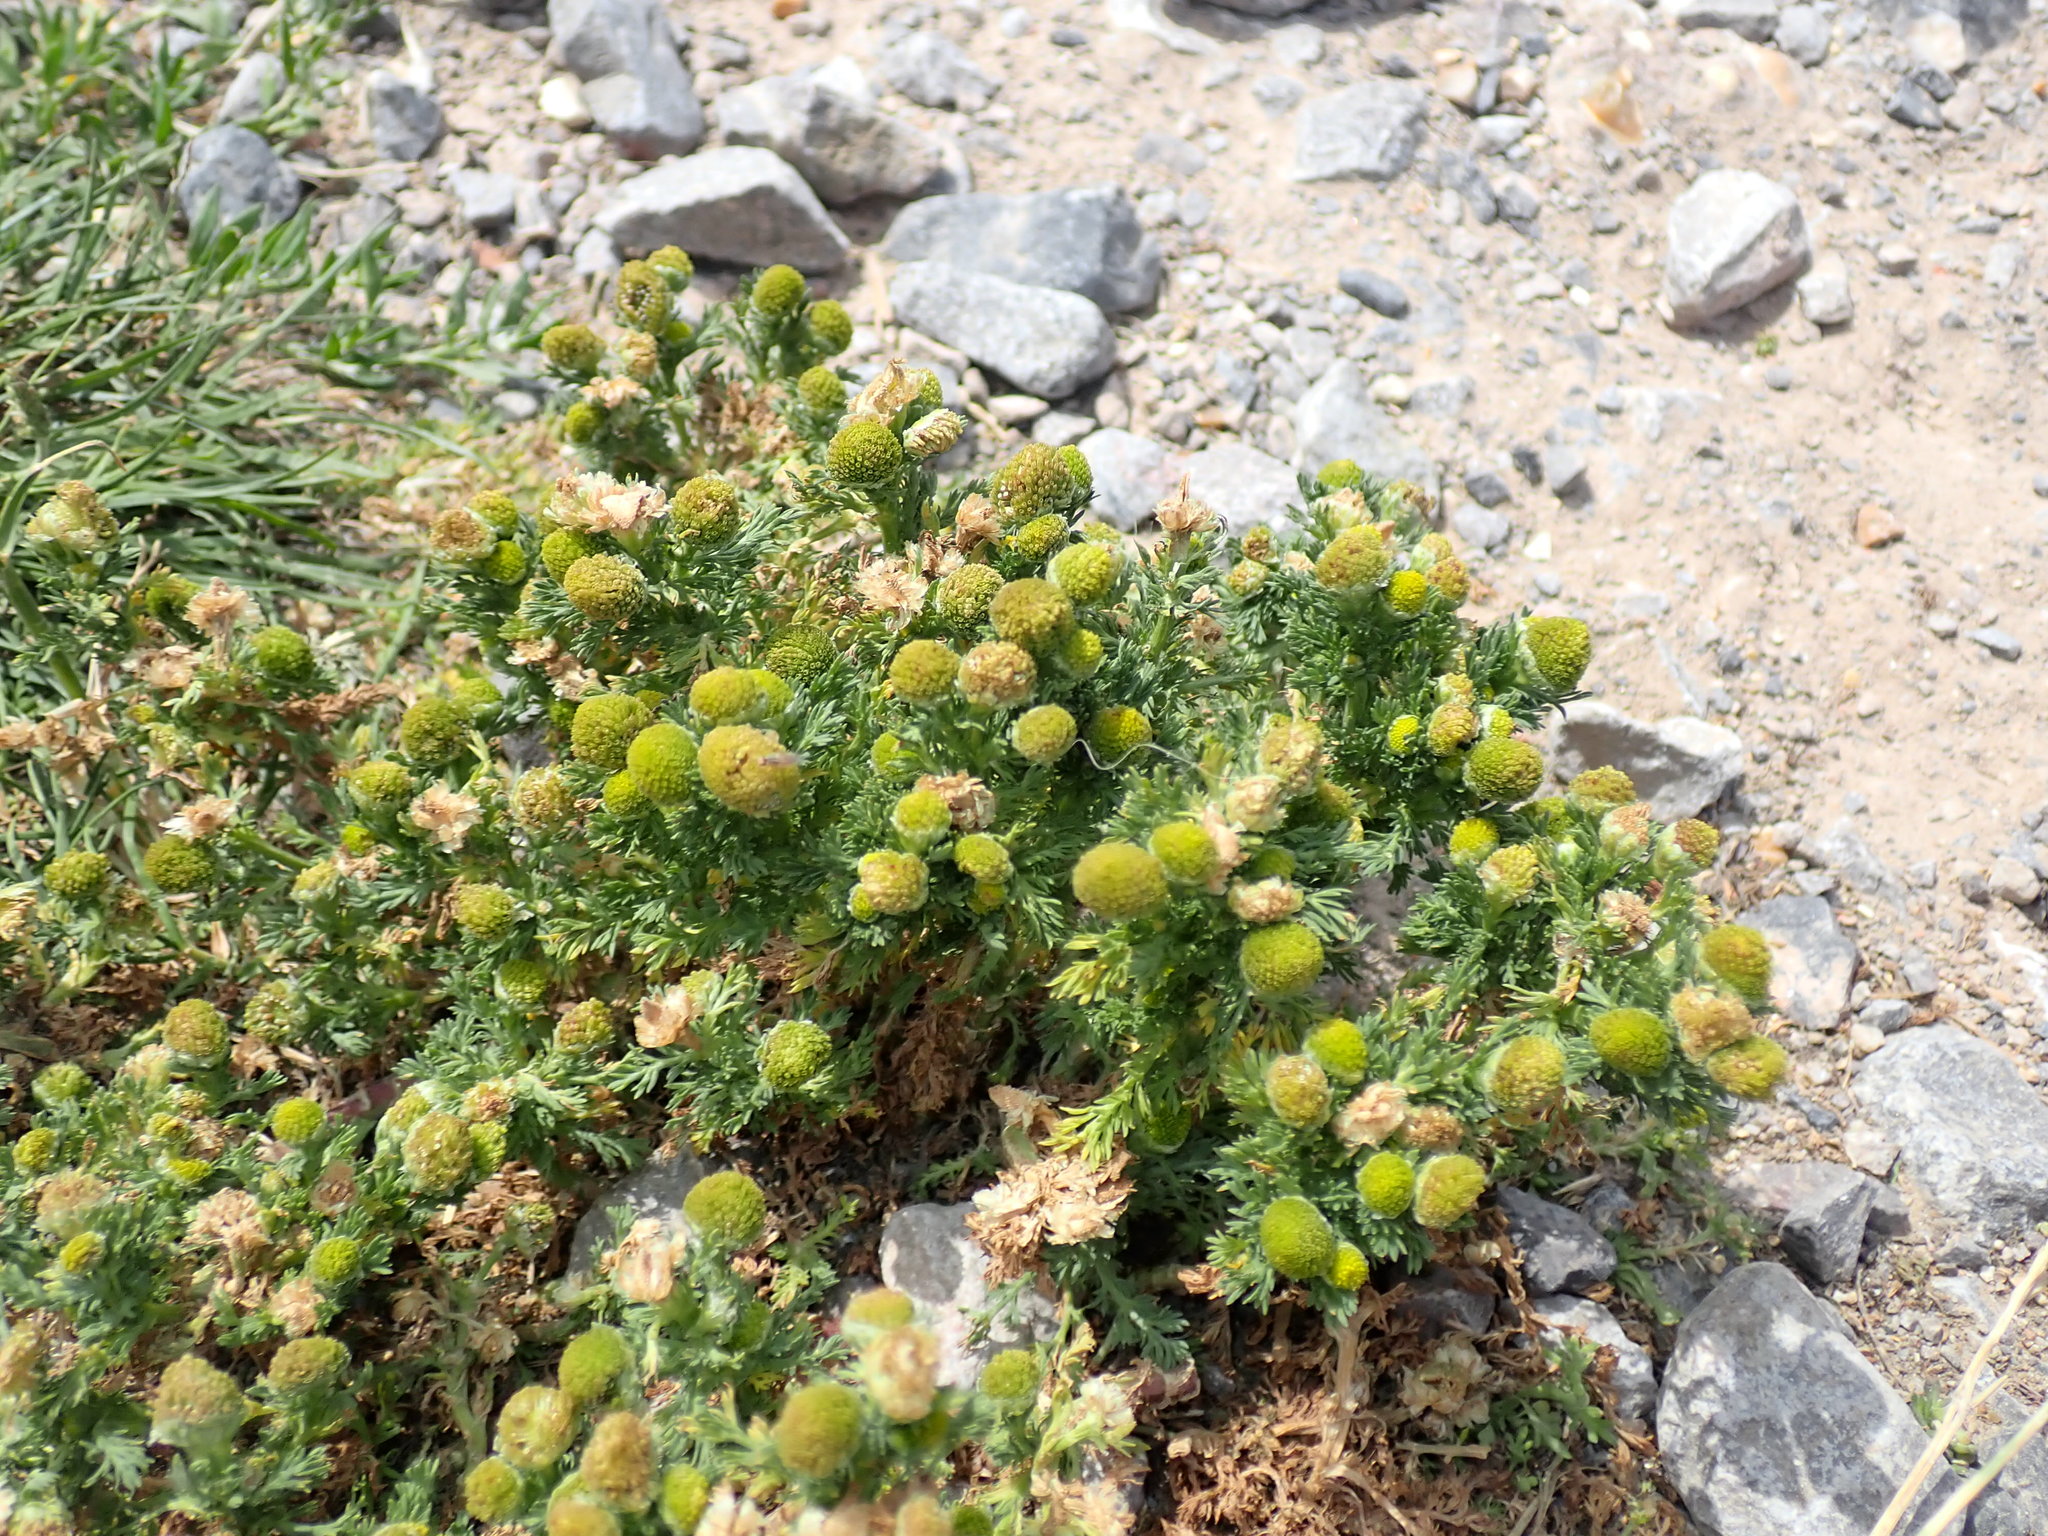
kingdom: Plantae
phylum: Tracheophyta
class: Magnoliopsida
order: Asterales
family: Asteraceae
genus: Matricaria
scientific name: Matricaria discoidea
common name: Disc mayweed
